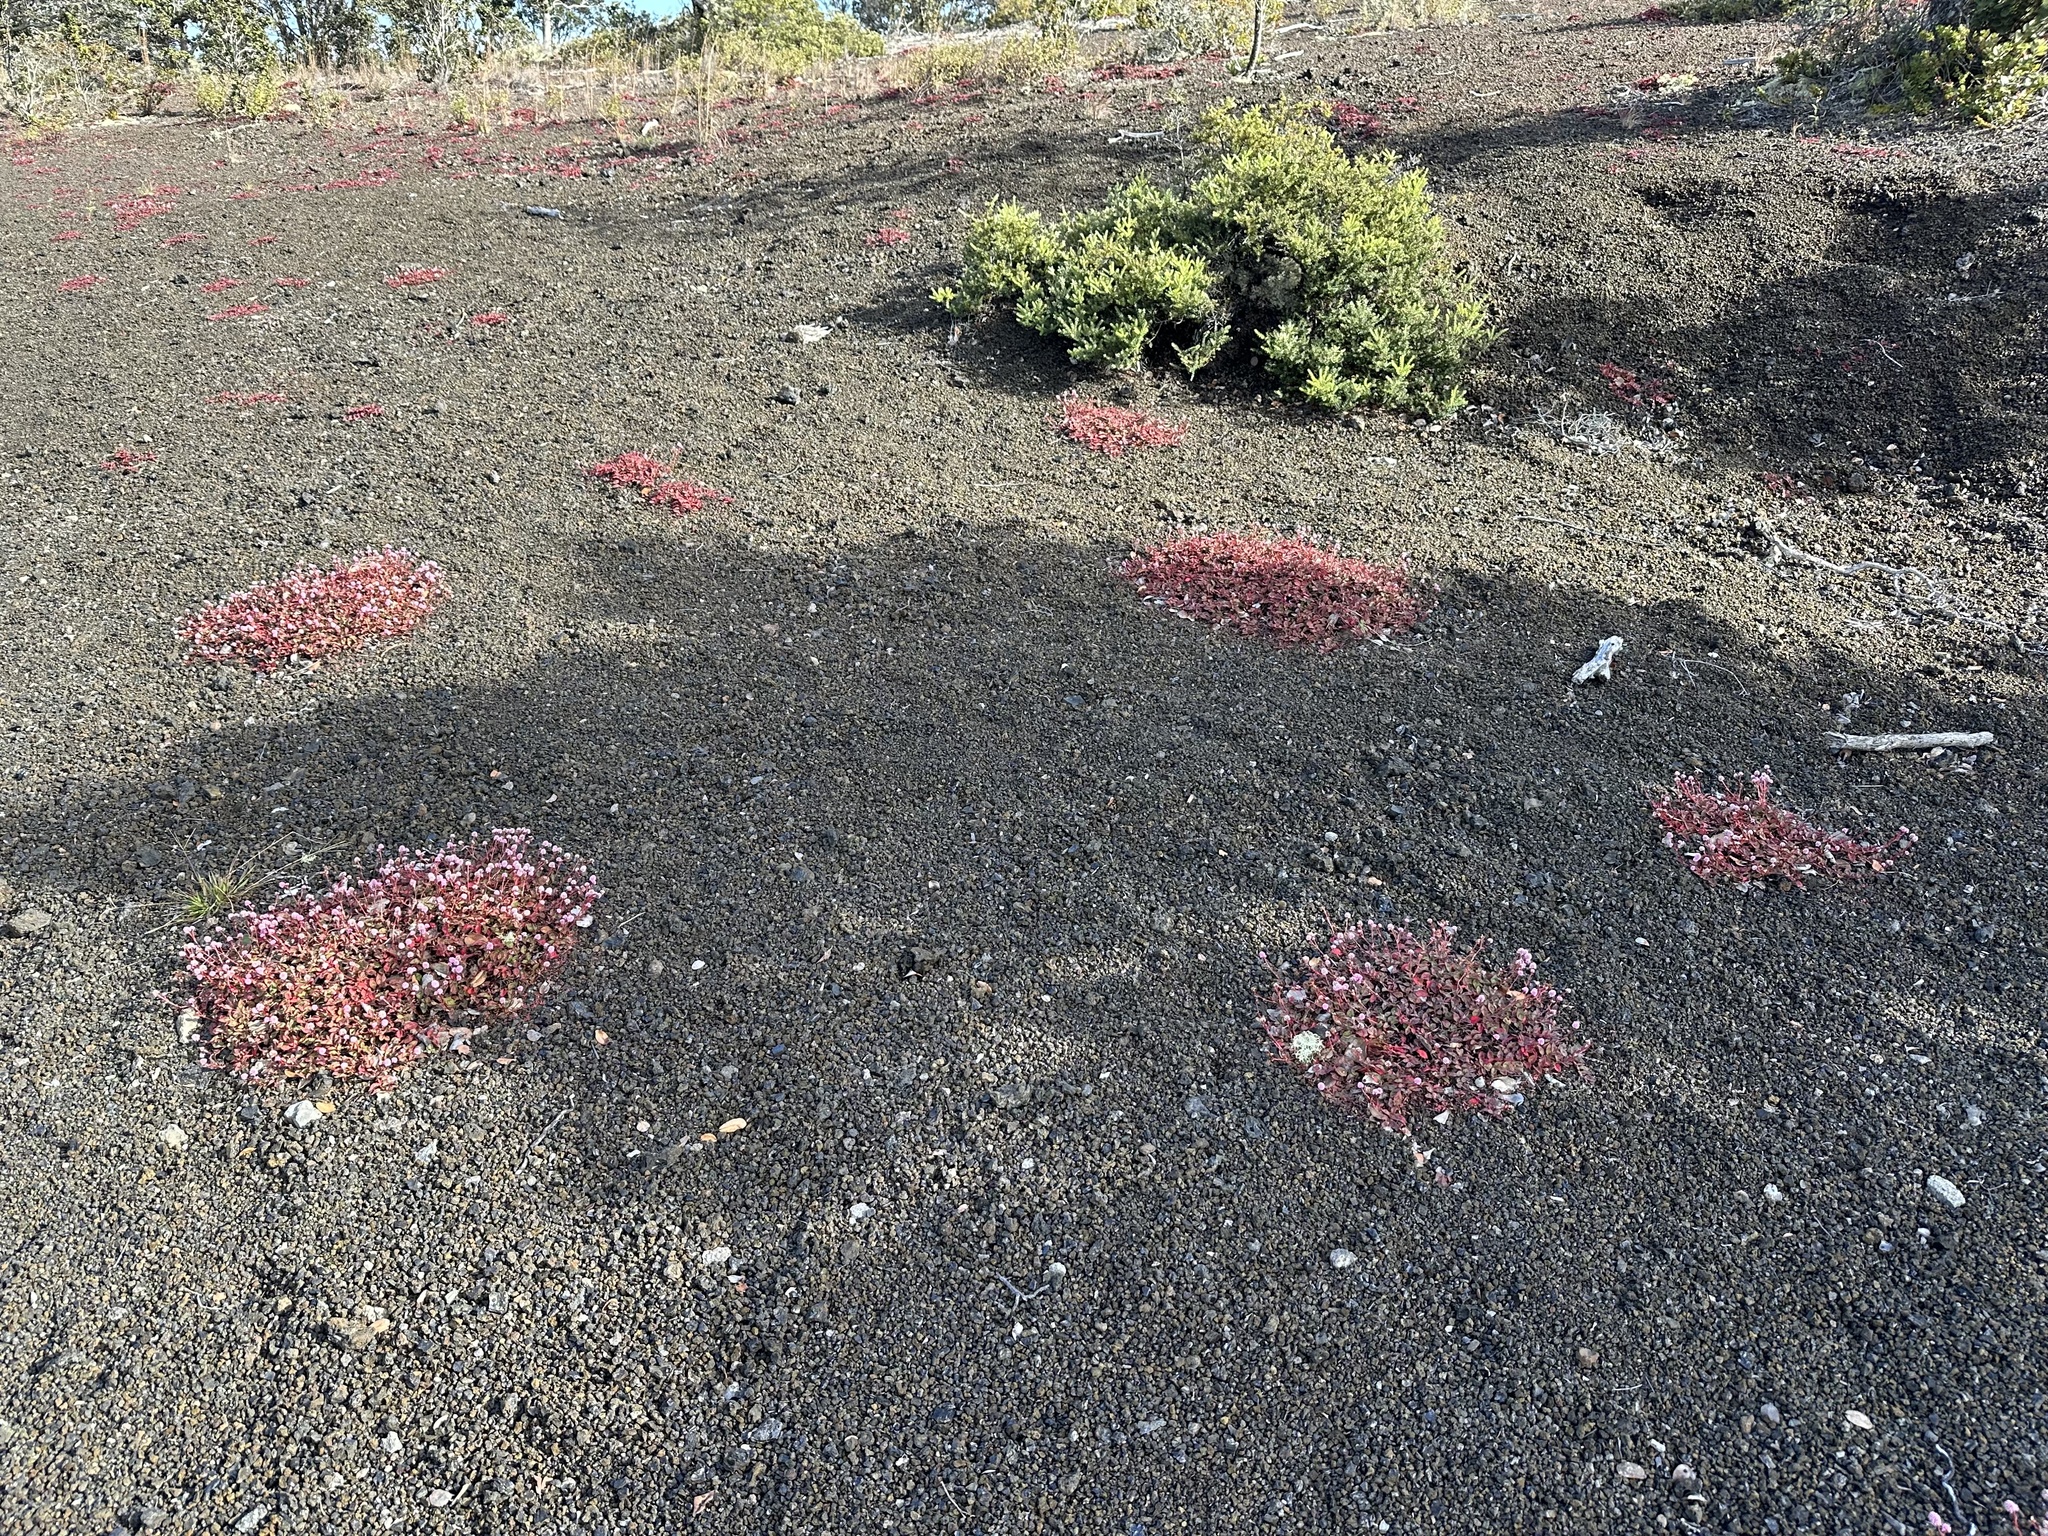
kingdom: Plantae
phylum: Tracheophyta
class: Magnoliopsida
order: Caryophyllales
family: Polygonaceae
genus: Persicaria
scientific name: Persicaria capitata
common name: Pinkhead smartweed
